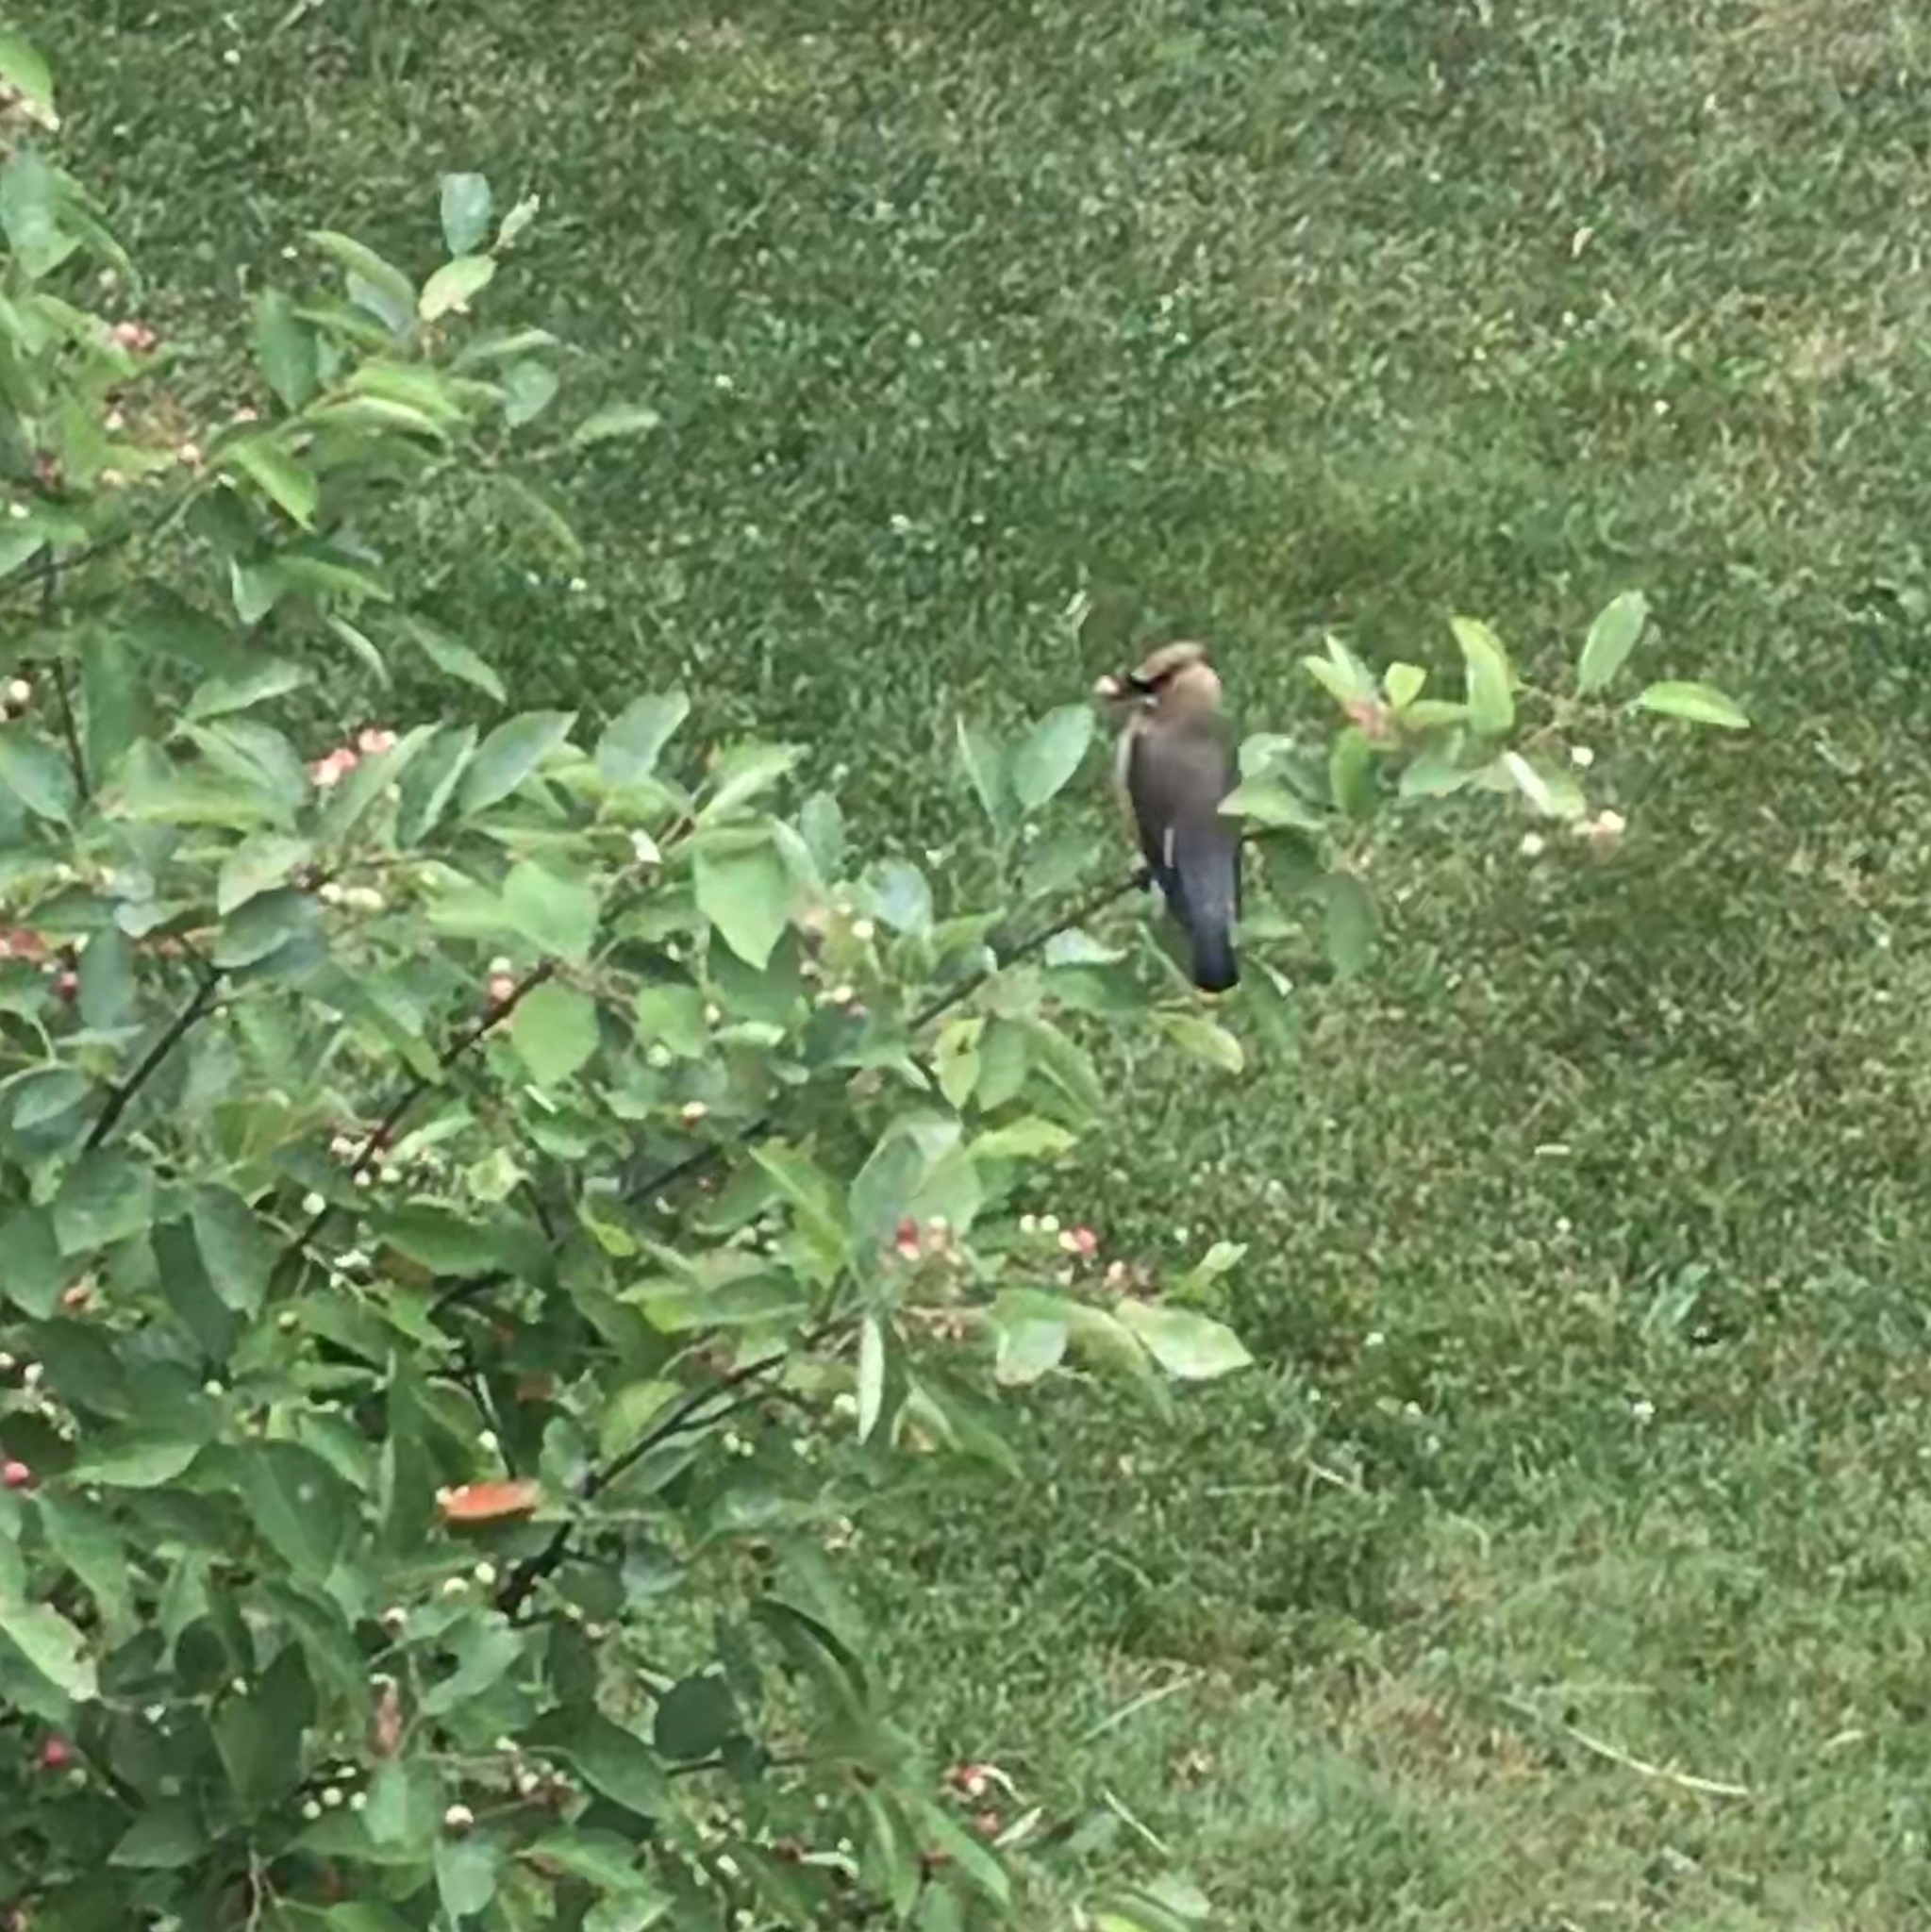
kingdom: Animalia
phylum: Chordata
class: Aves
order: Passeriformes
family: Bombycillidae
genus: Bombycilla
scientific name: Bombycilla cedrorum
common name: Cedar waxwing
